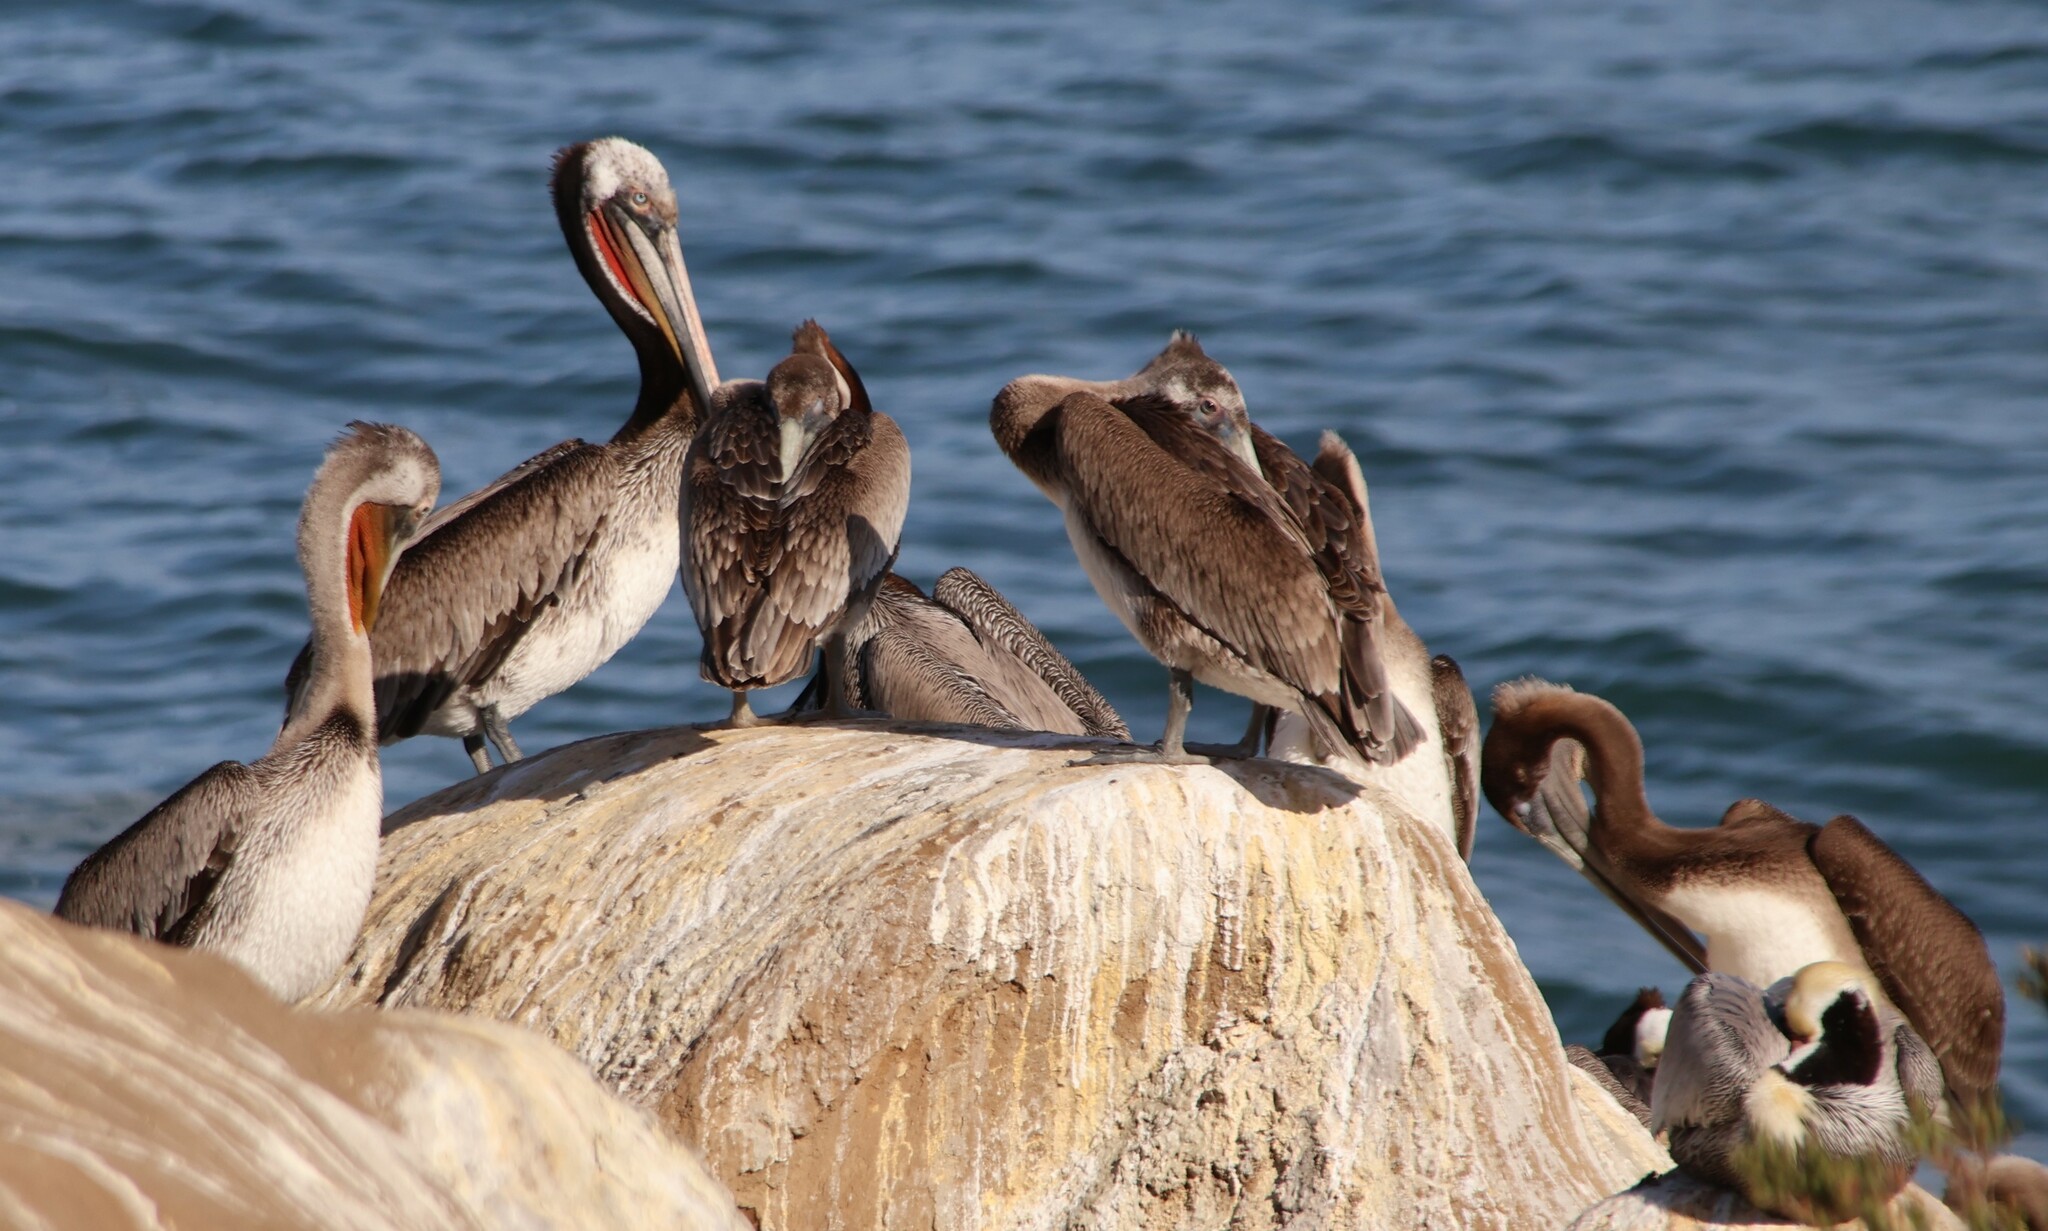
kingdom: Animalia
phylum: Chordata
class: Aves
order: Pelecaniformes
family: Pelecanidae
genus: Pelecanus
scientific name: Pelecanus occidentalis
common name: Brown pelican
